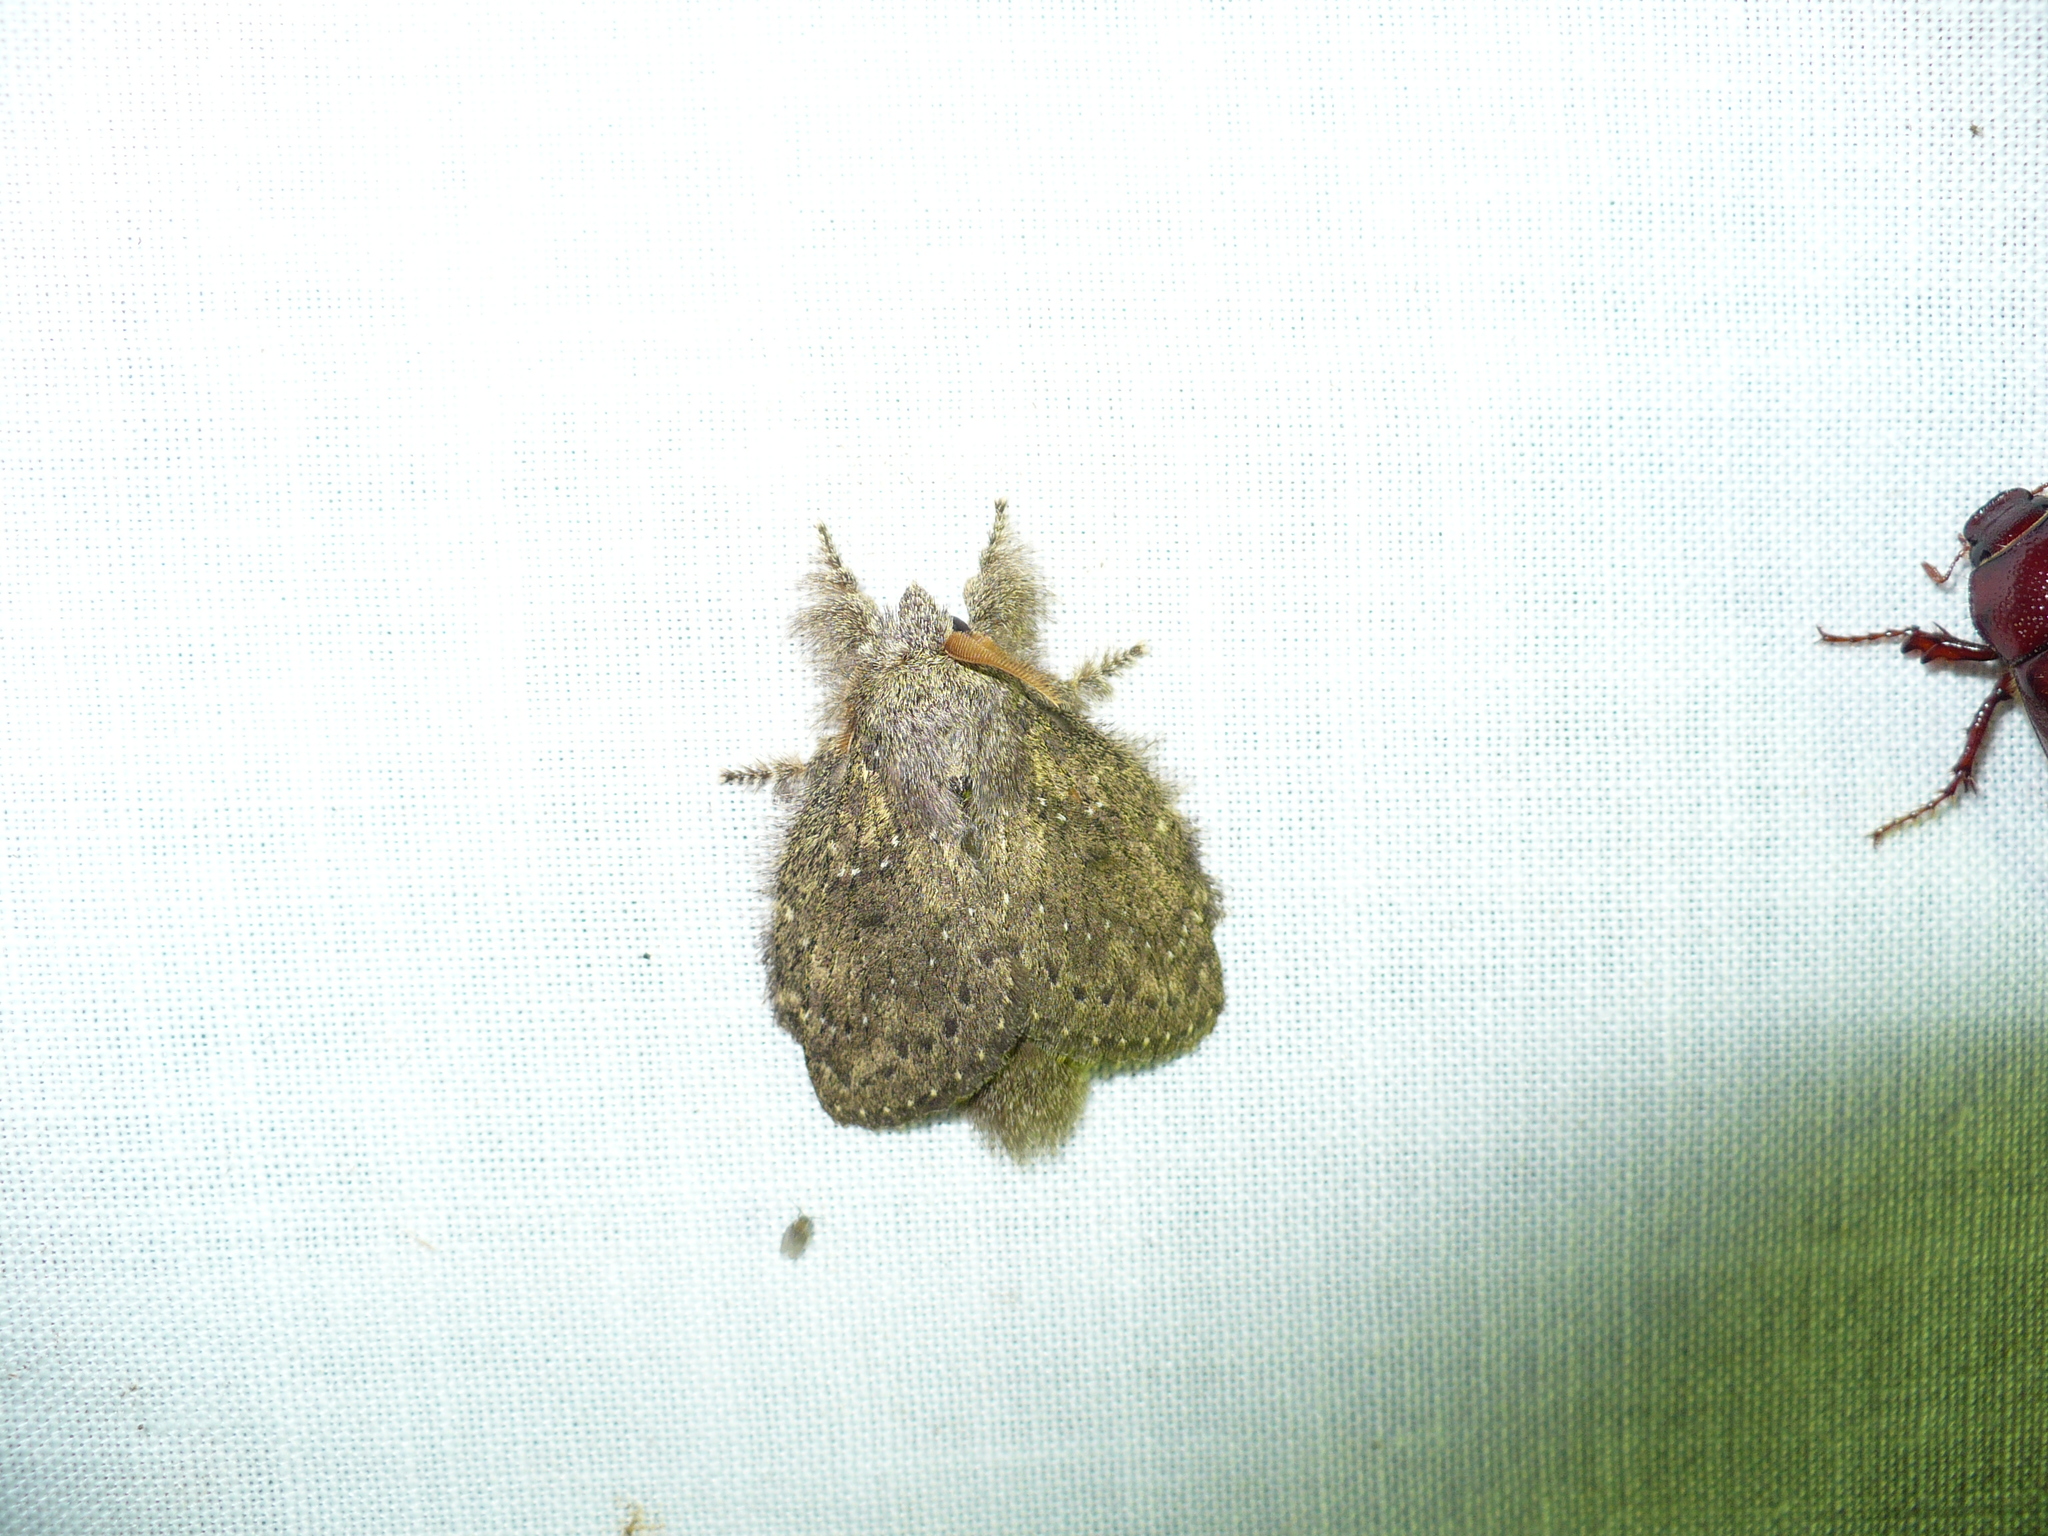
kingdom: Animalia
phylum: Arthropoda
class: Insecta
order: Lepidoptera
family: Lasiocampidae
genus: Euglyphis
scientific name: Euglyphis melancholica
